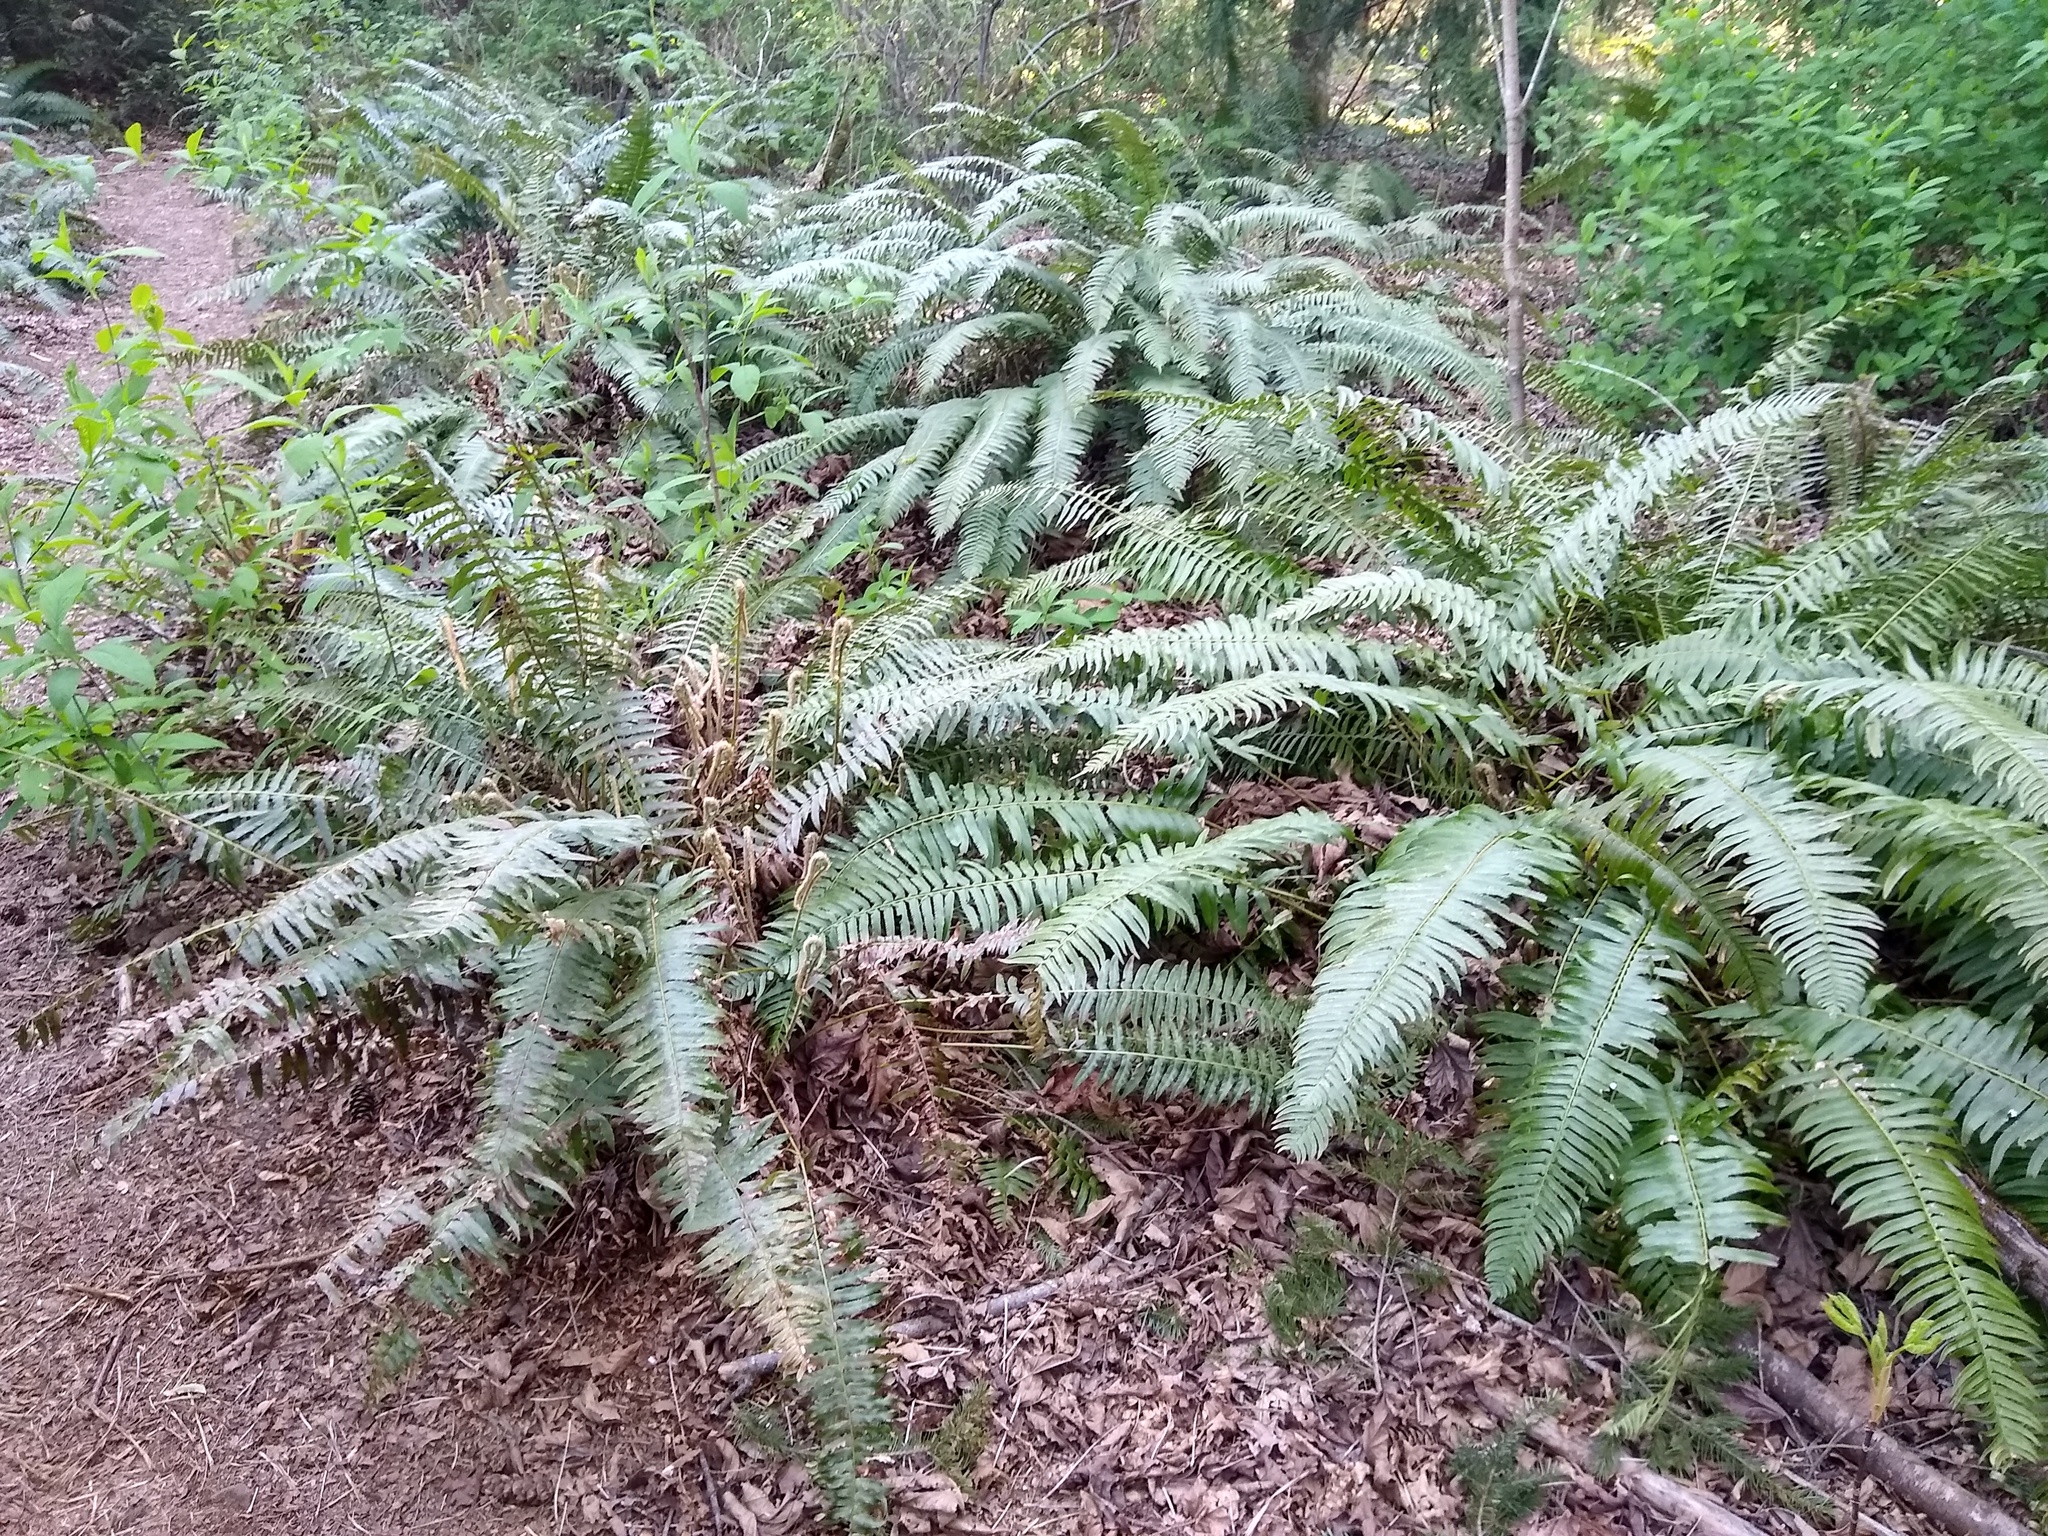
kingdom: Plantae
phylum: Tracheophyta
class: Polypodiopsida
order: Polypodiales
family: Dryopteridaceae
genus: Polystichum
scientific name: Polystichum munitum
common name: Western sword-fern
